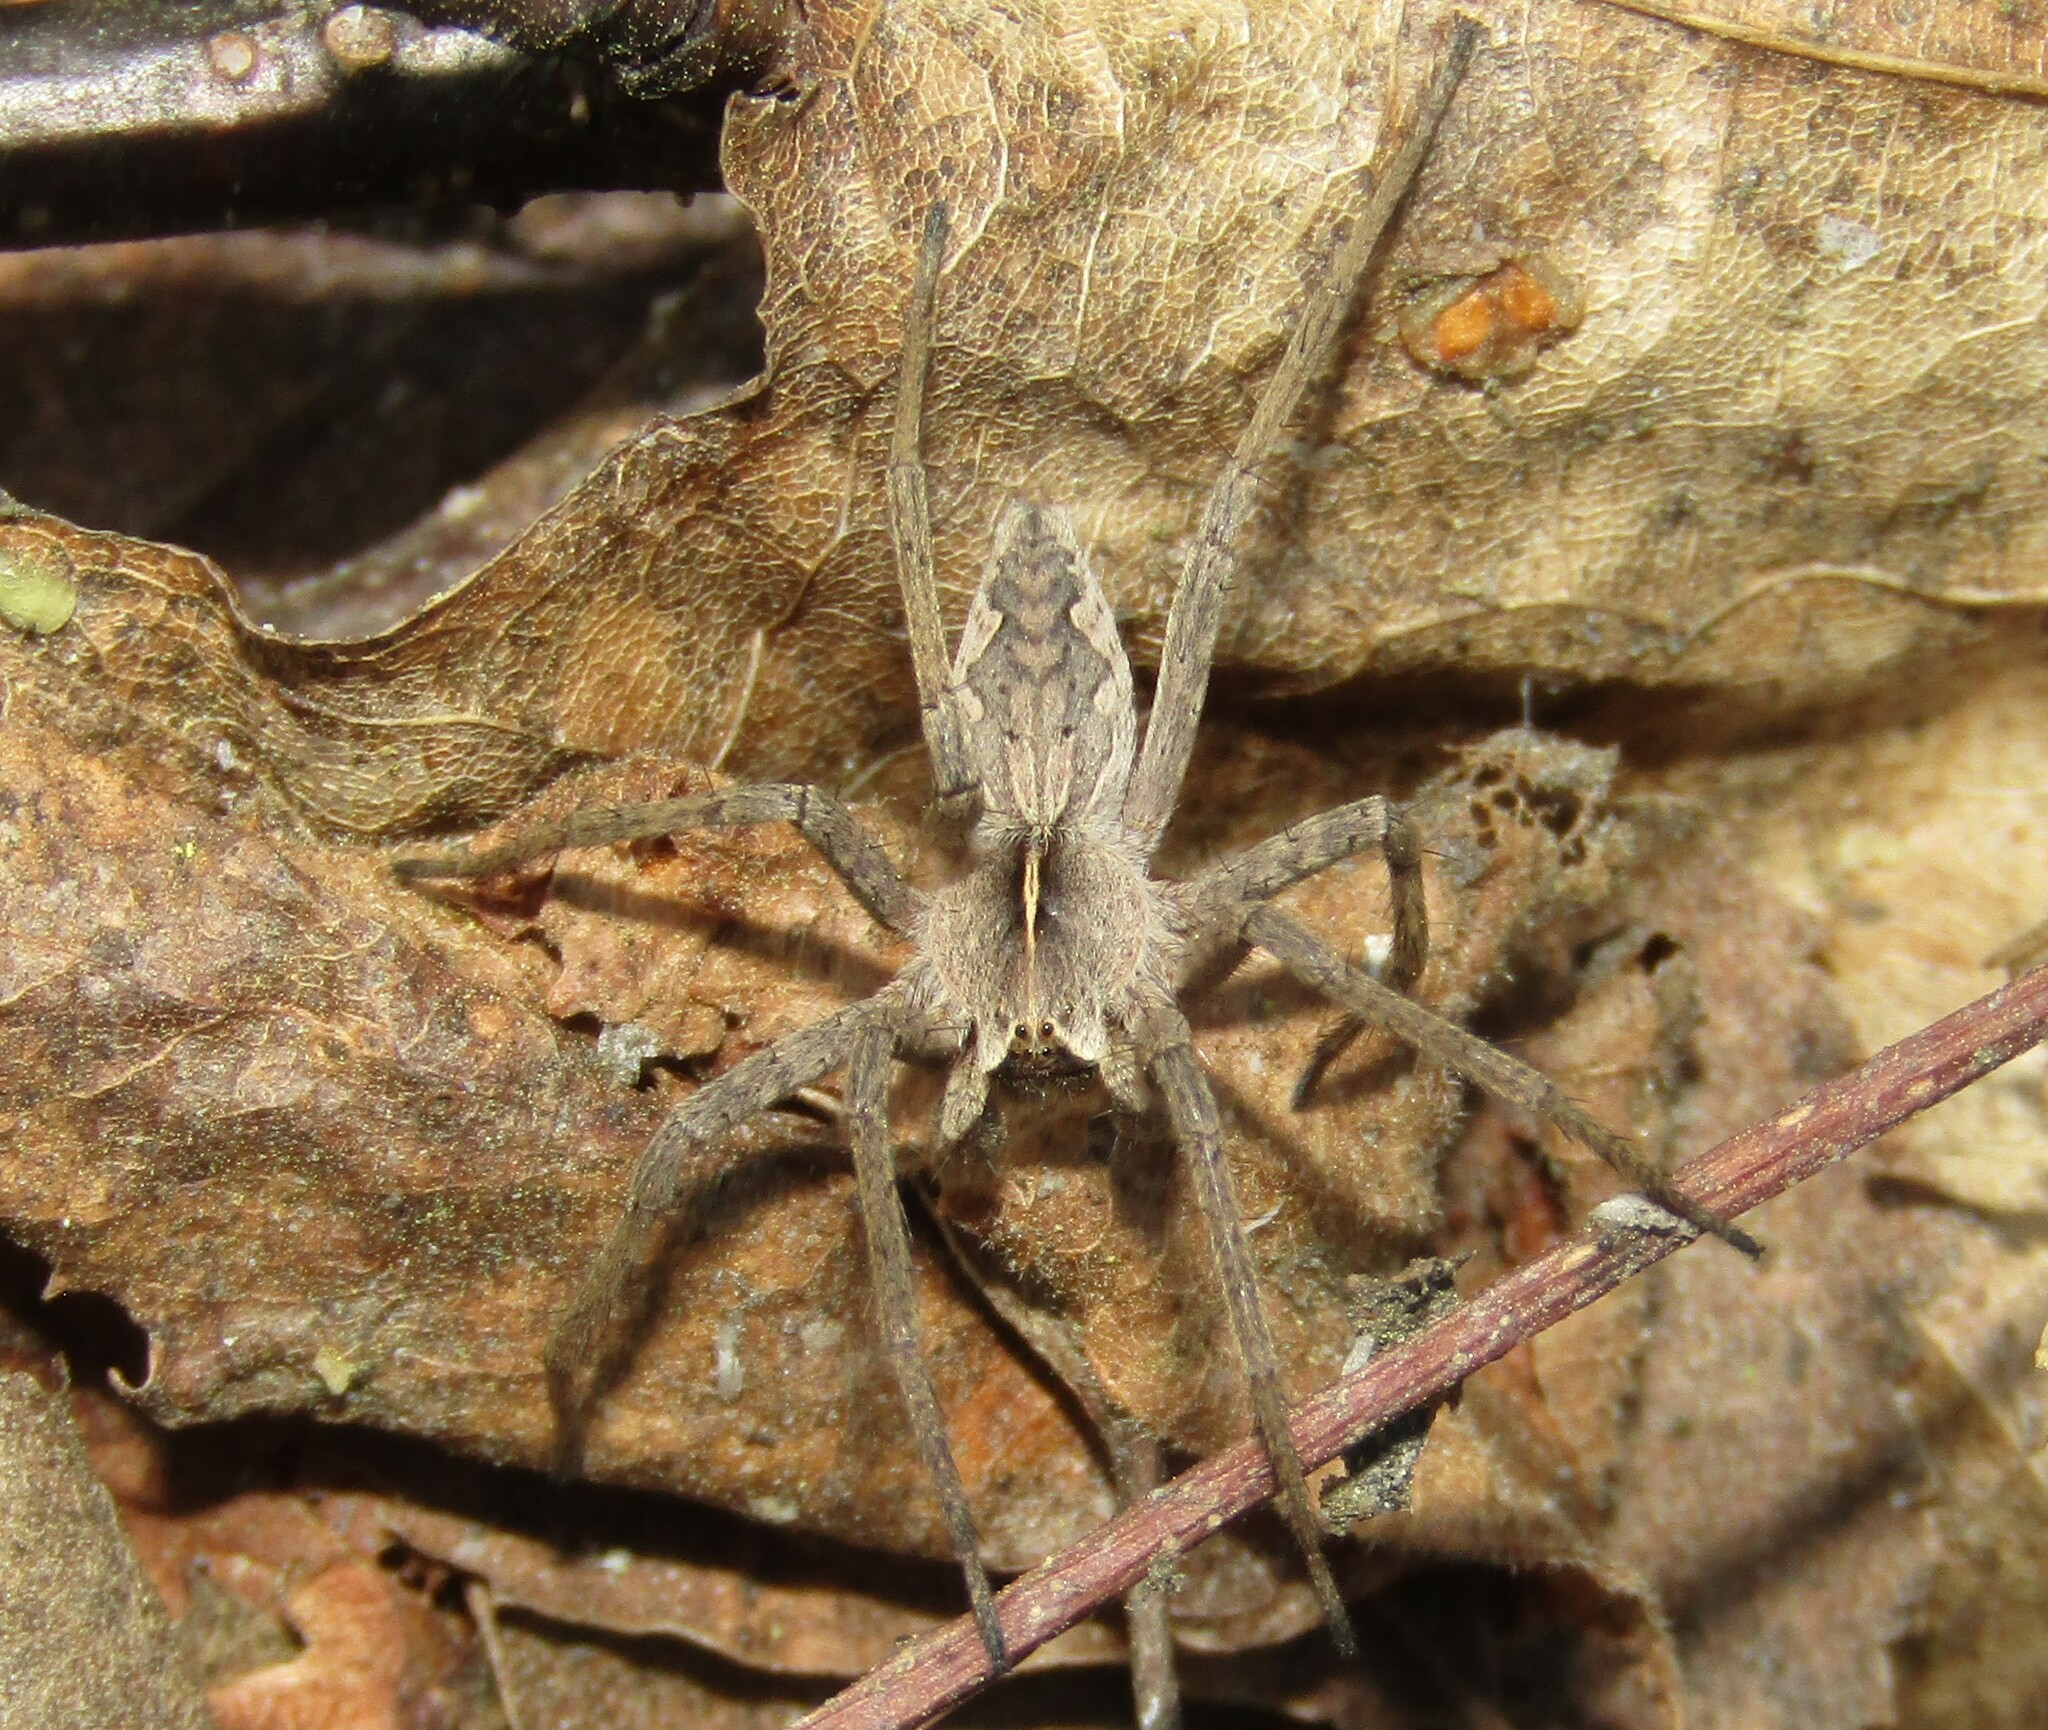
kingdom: Animalia
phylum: Arthropoda
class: Arachnida
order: Araneae
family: Pisauridae
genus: Pisaura
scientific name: Pisaura mirabilis
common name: Tent spider
